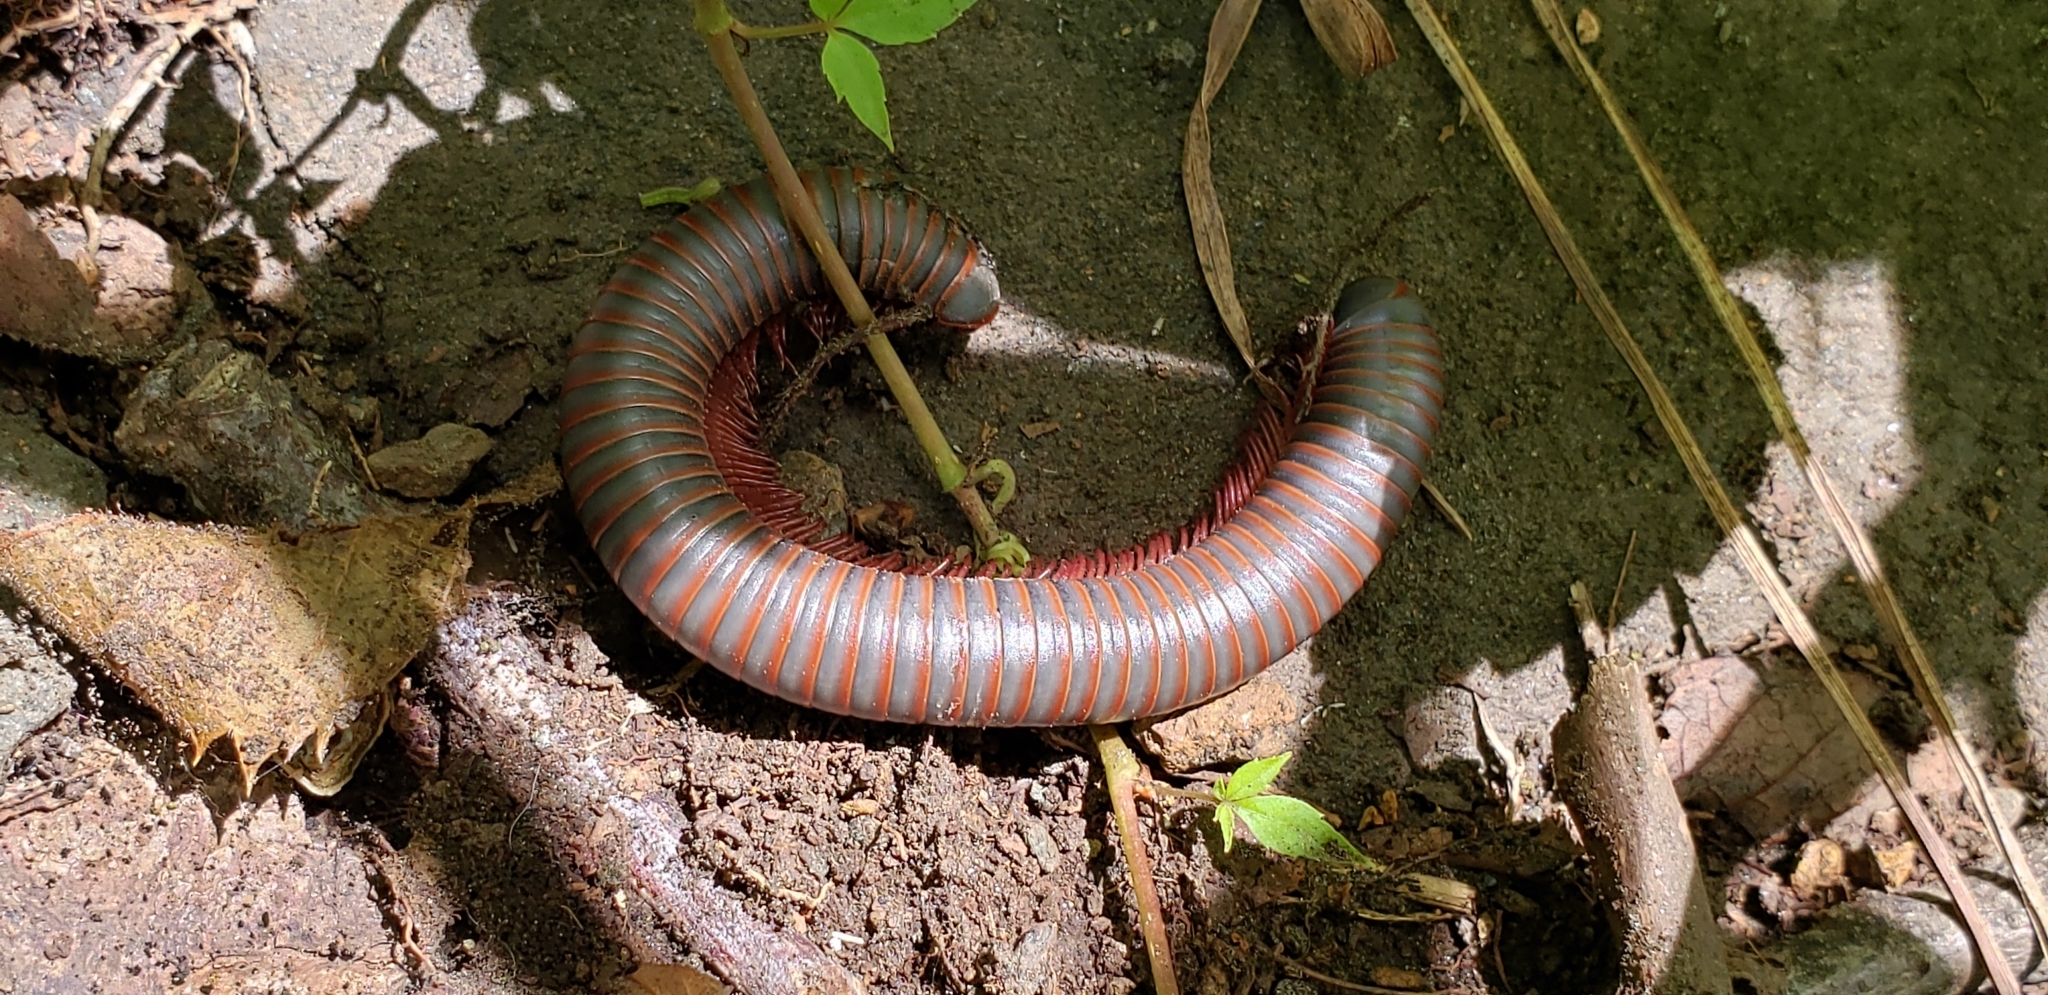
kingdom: Animalia
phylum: Arthropoda
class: Diplopoda
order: Spirobolida
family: Spirobolidae
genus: Narceus
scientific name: Narceus
